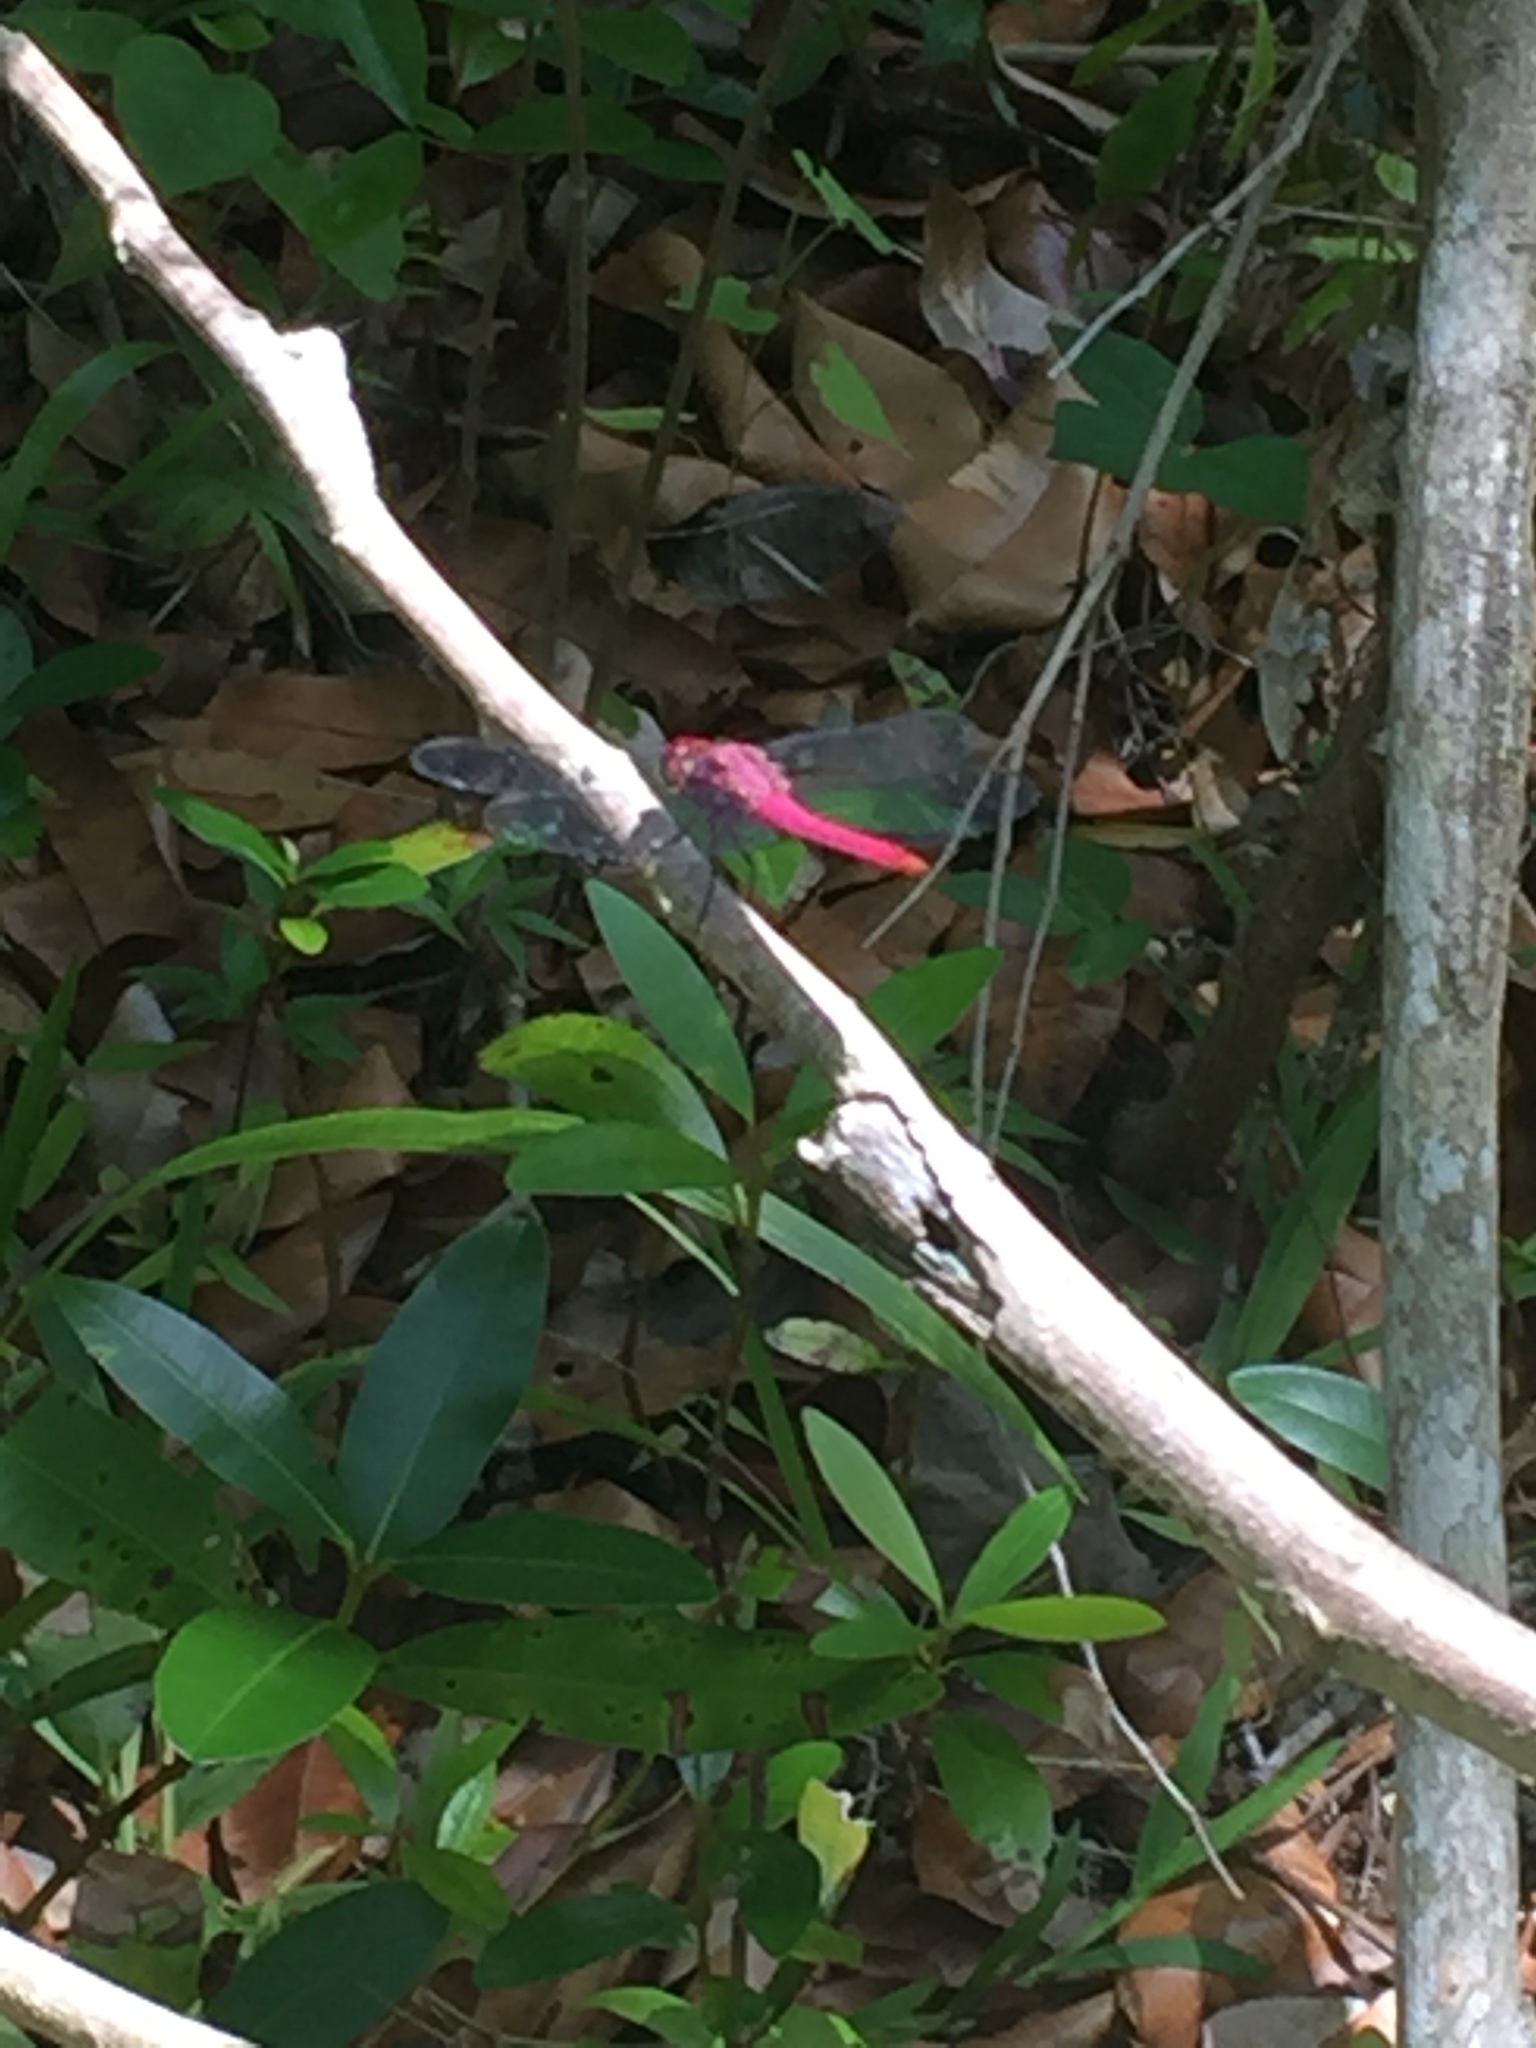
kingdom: Animalia
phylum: Arthropoda
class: Insecta
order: Odonata
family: Libellulidae
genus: Orthemis
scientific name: Orthemis ferruginea
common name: Roseate skimmer
